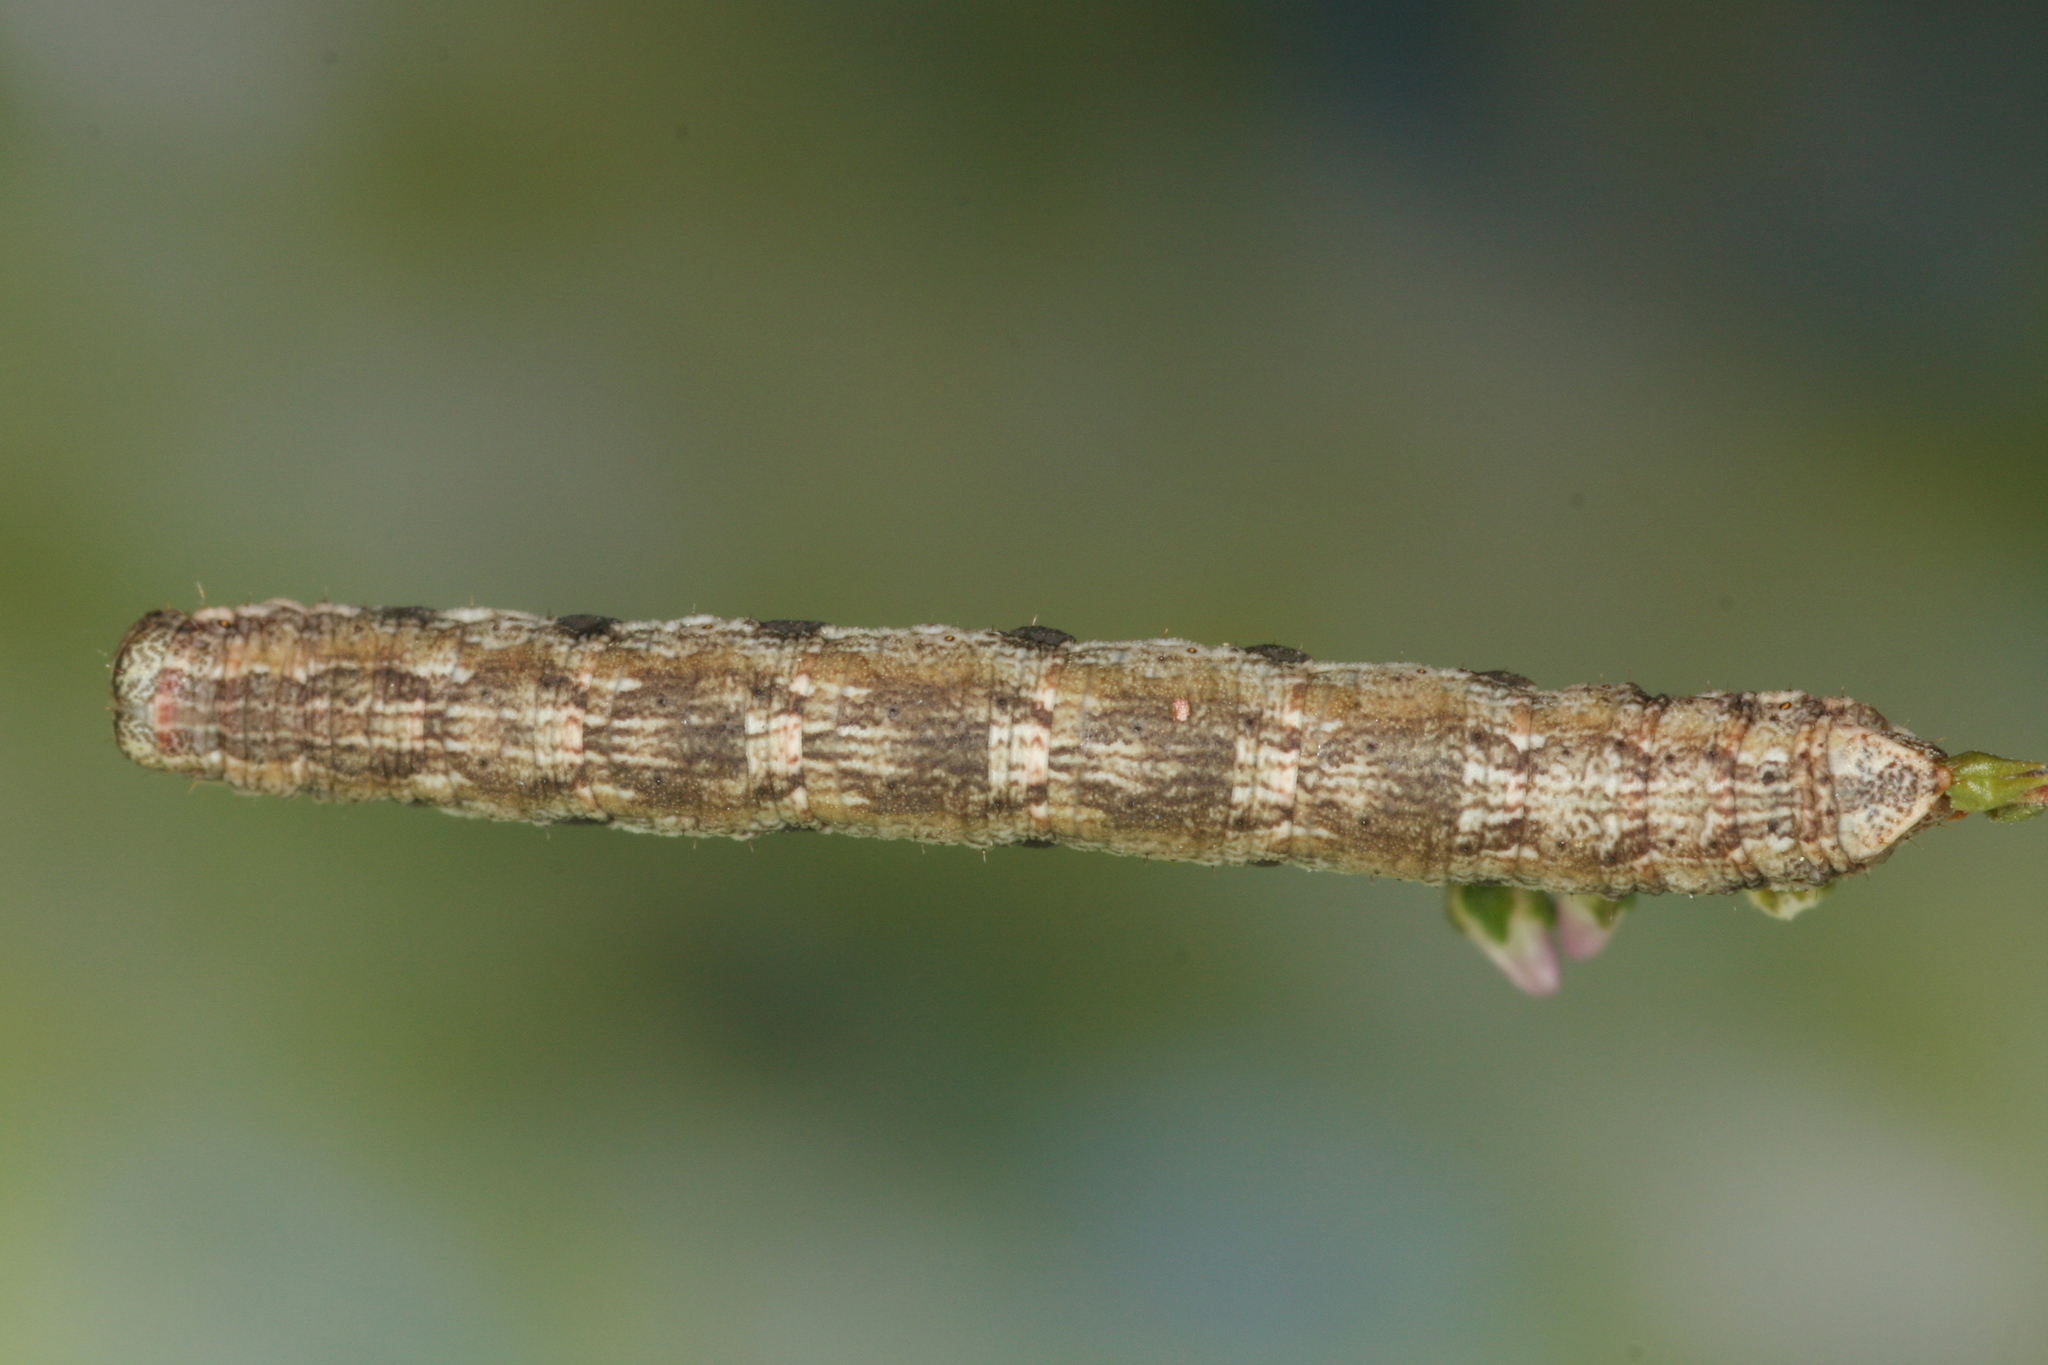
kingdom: Animalia
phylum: Arthropoda
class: Insecta
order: Lepidoptera
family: Geometridae
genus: Ematurga
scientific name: Ematurga atomaria
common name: Common heath
